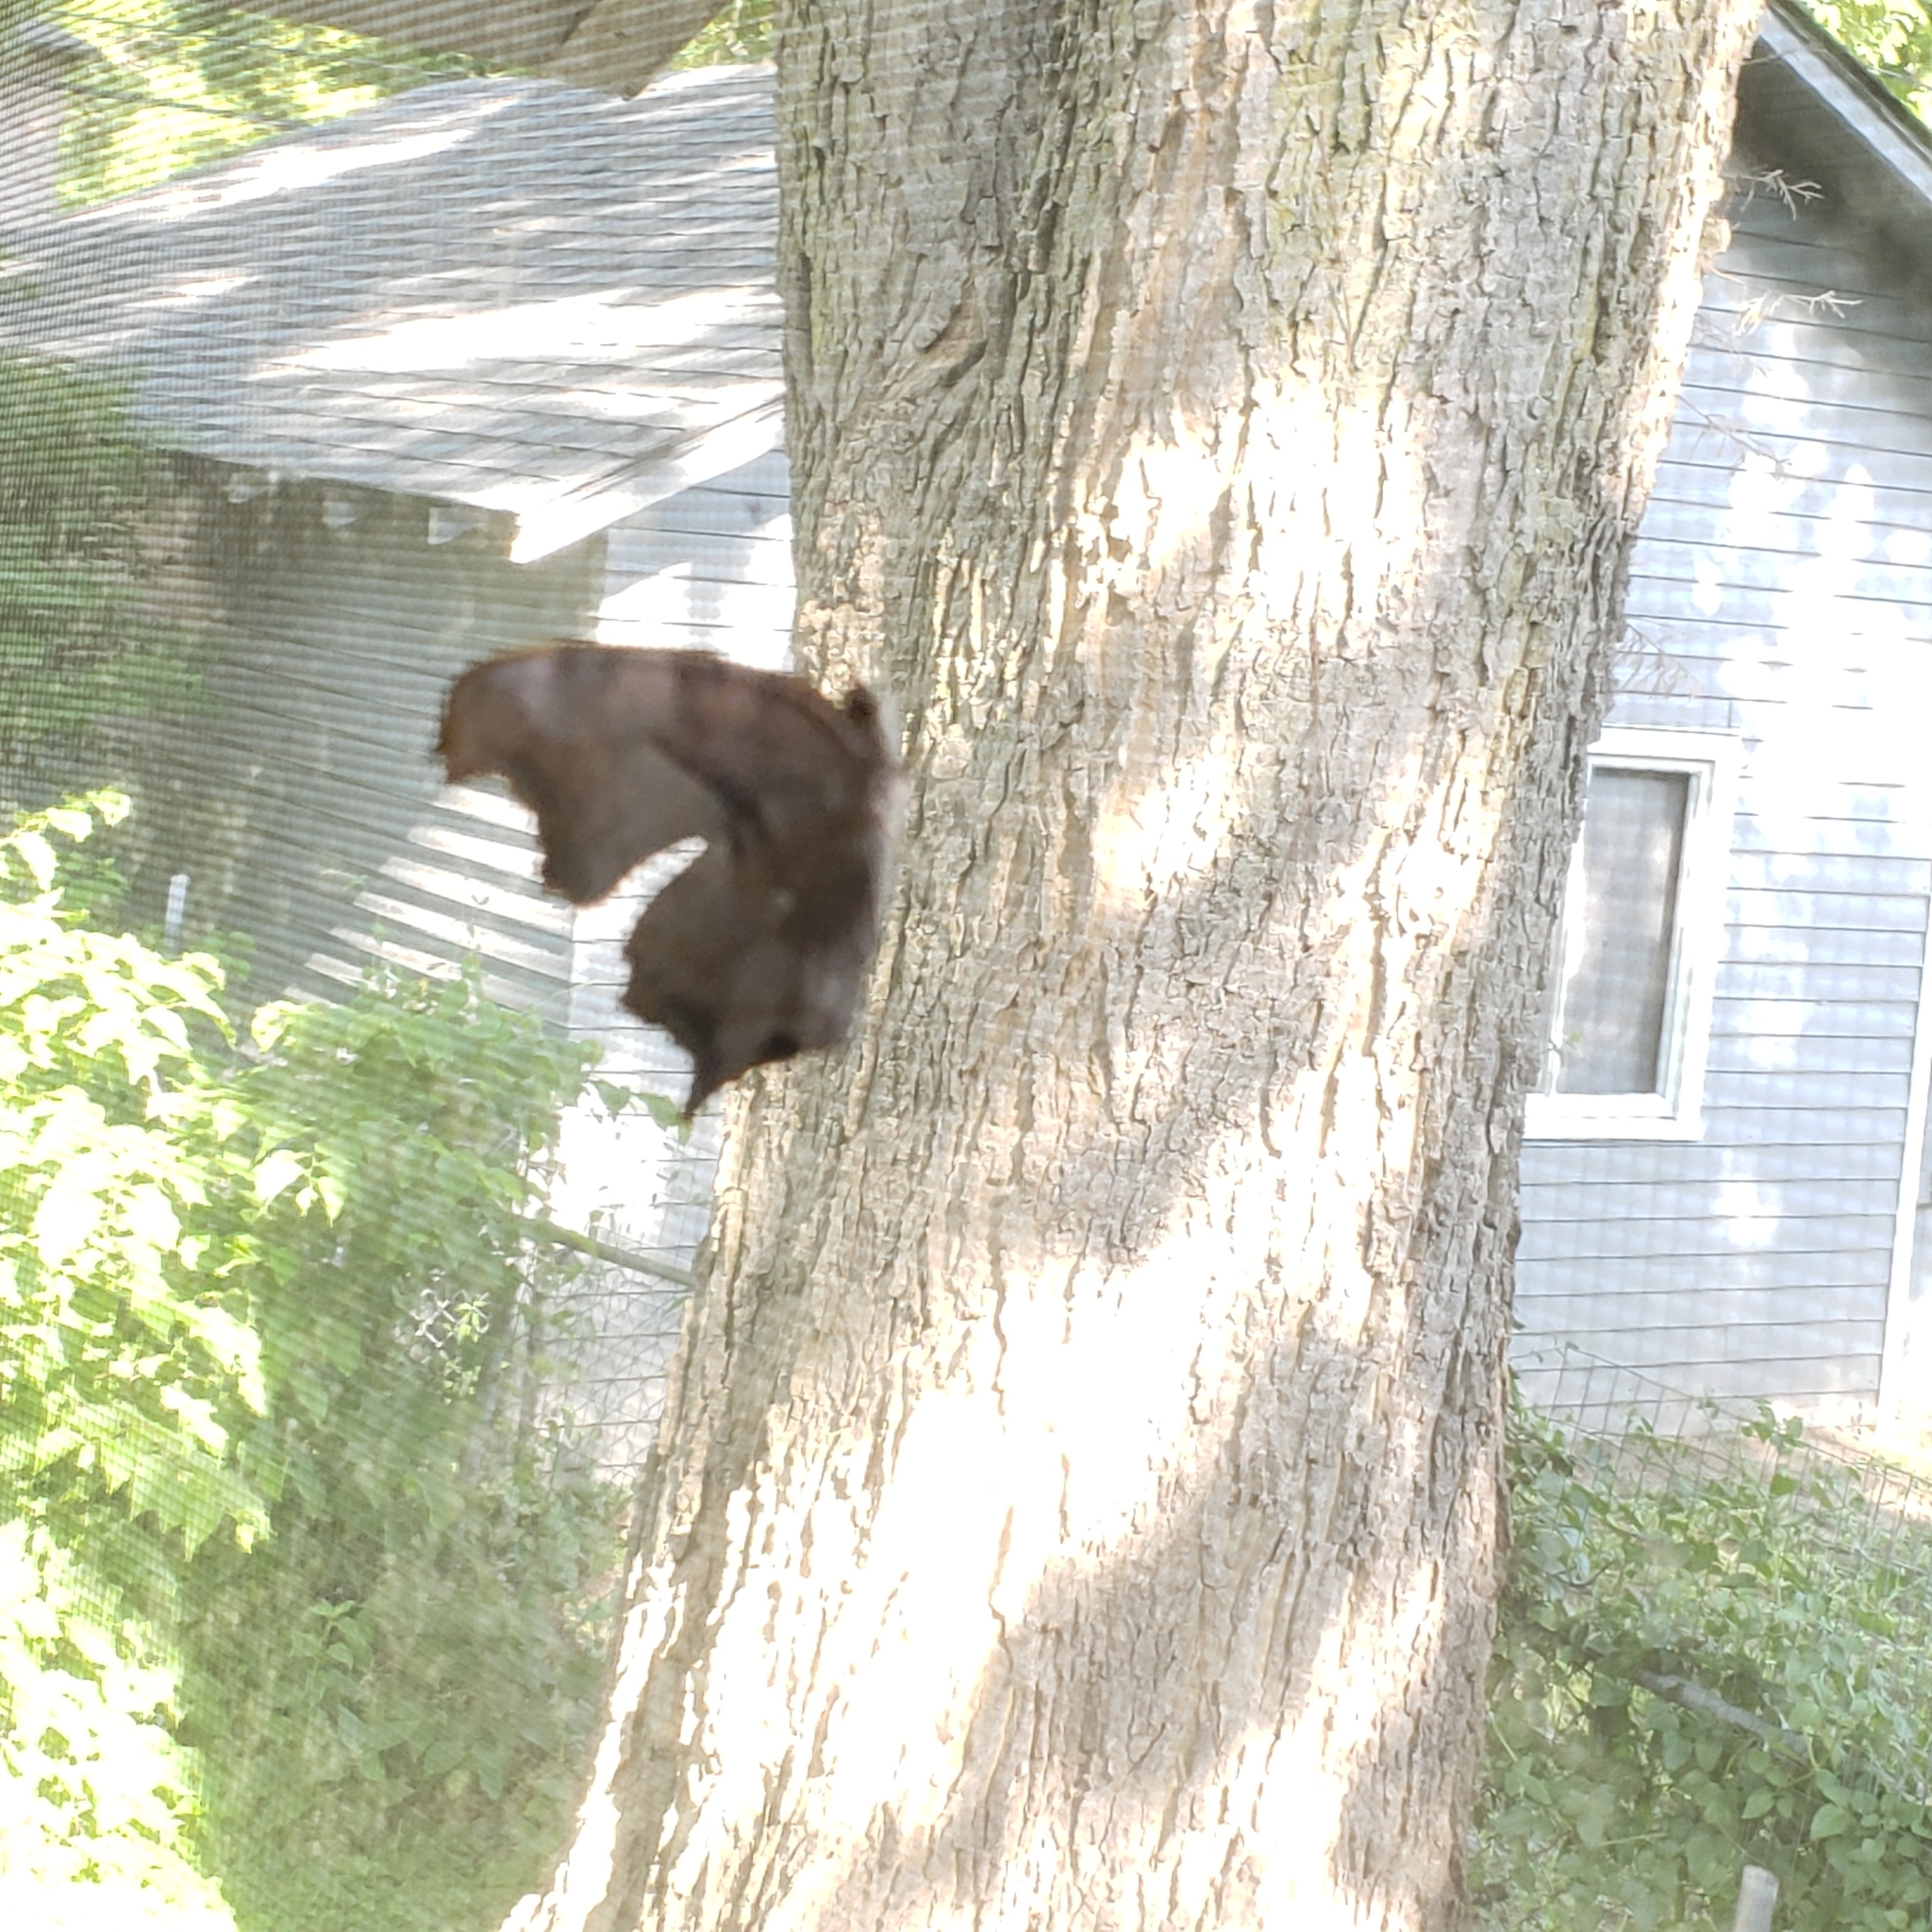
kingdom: Animalia
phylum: Arthropoda
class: Insecta
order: Lepidoptera
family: Nymphalidae
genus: Polygonia
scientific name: Polygonia interrogationis
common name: Question mark
